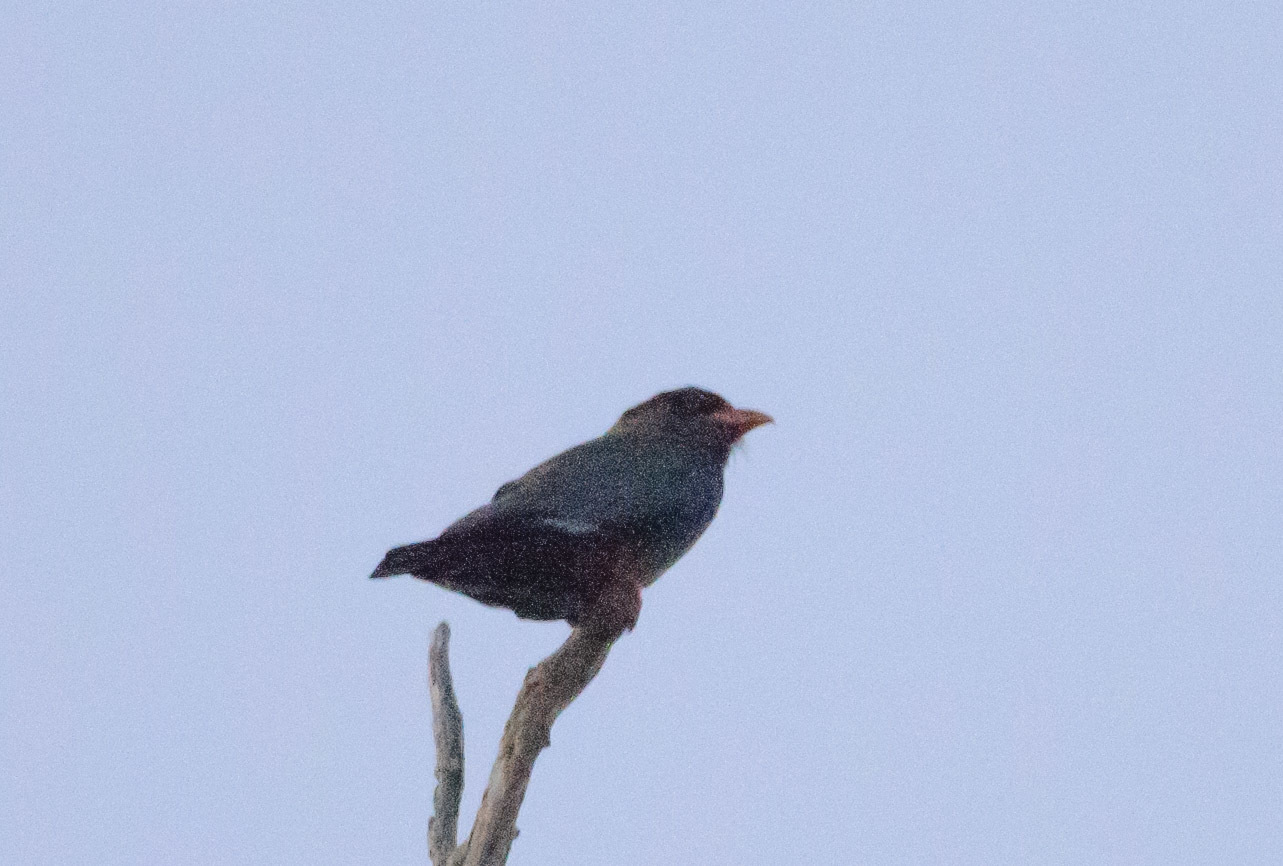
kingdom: Animalia
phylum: Chordata
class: Aves
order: Coraciiformes
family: Coraciidae
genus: Eurystomus
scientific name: Eurystomus orientalis
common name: Oriental dollarbird
